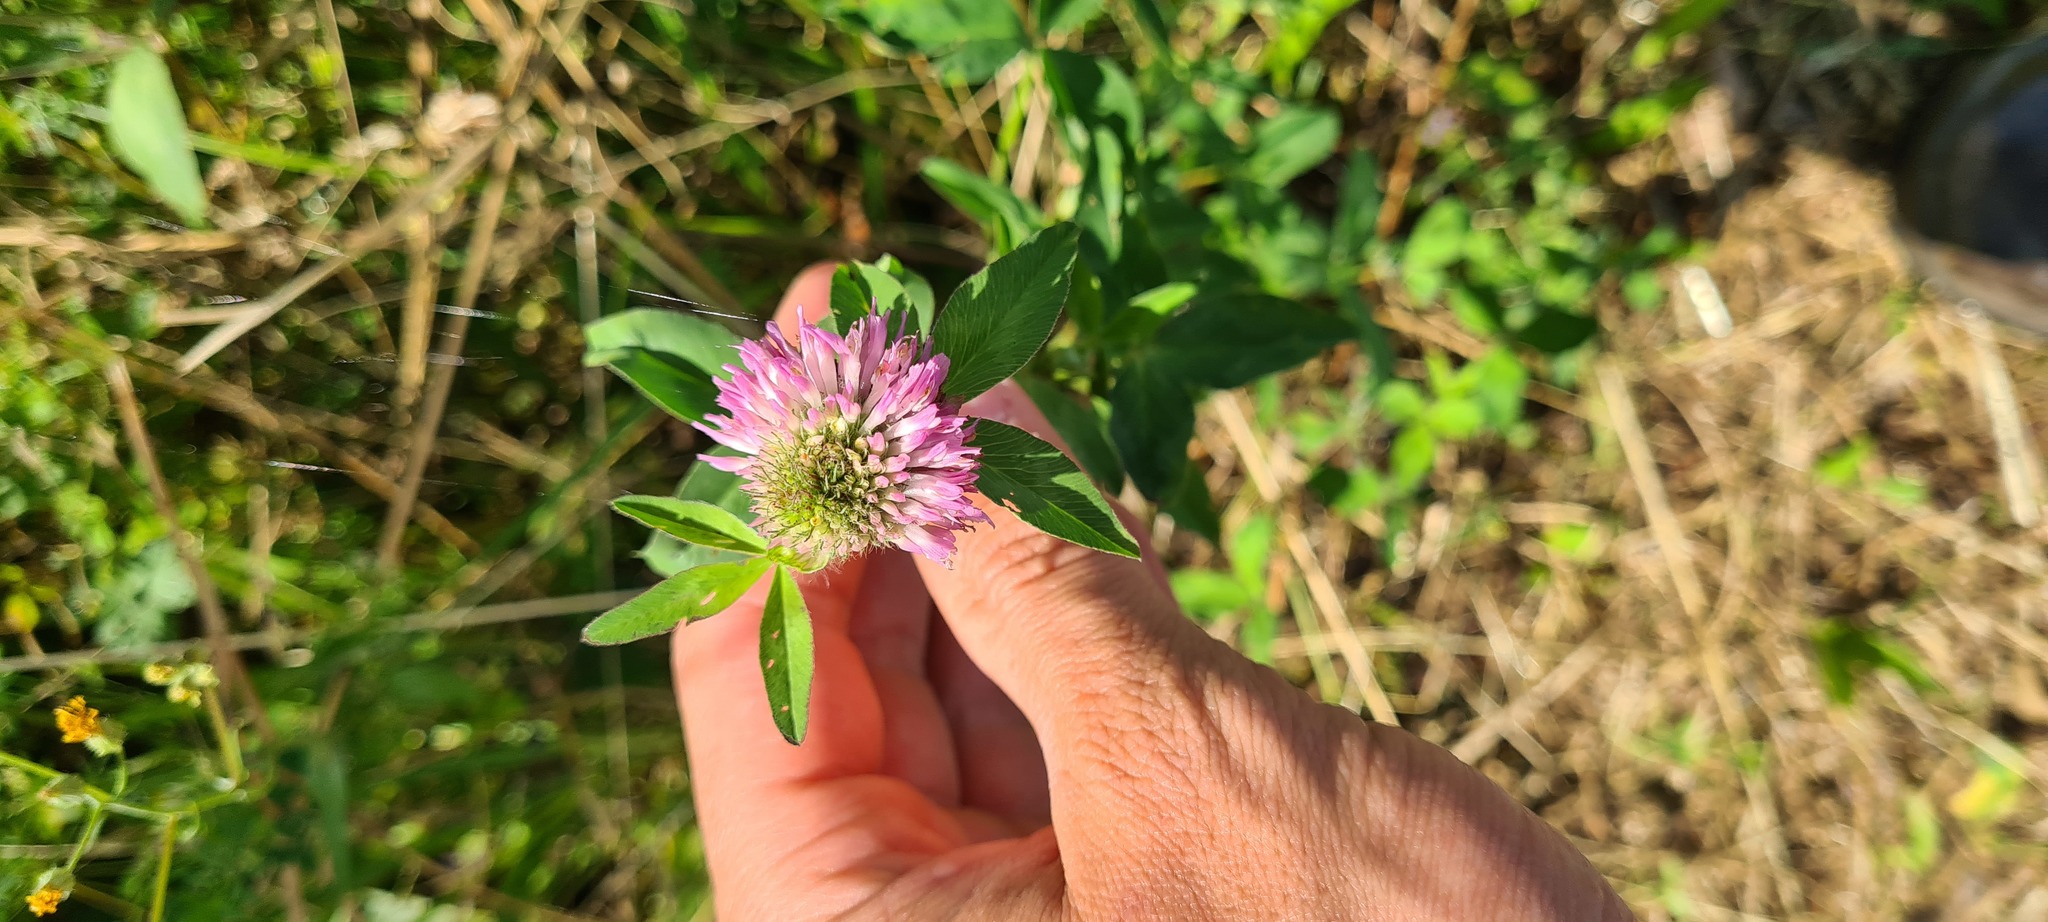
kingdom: Plantae
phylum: Tracheophyta
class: Magnoliopsida
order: Fabales
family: Fabaceae
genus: Trifolium
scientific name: Trifolium pratense
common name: Red clover
